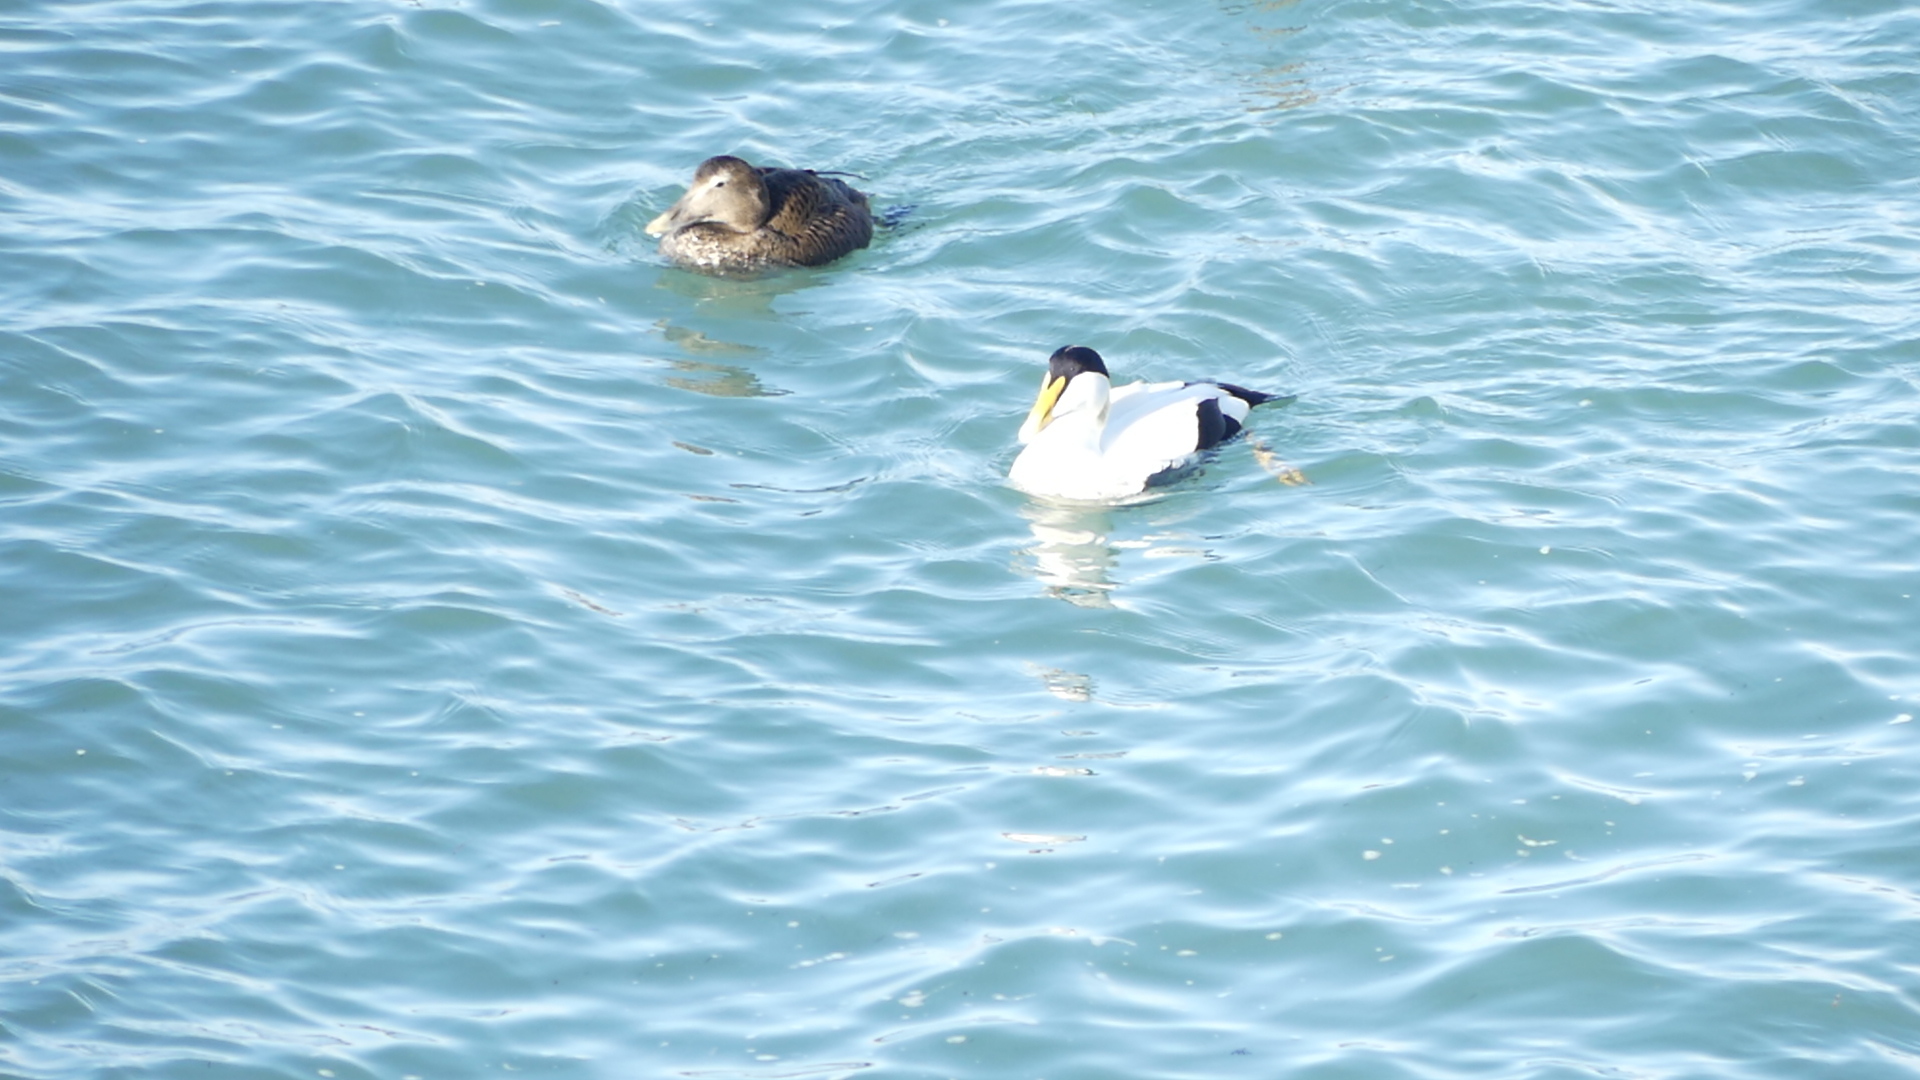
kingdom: Animalia
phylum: Chordata
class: Aves
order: Anseriformes
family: Anatidae
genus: Somateria
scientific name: Somateria mollissima
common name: Common eider
